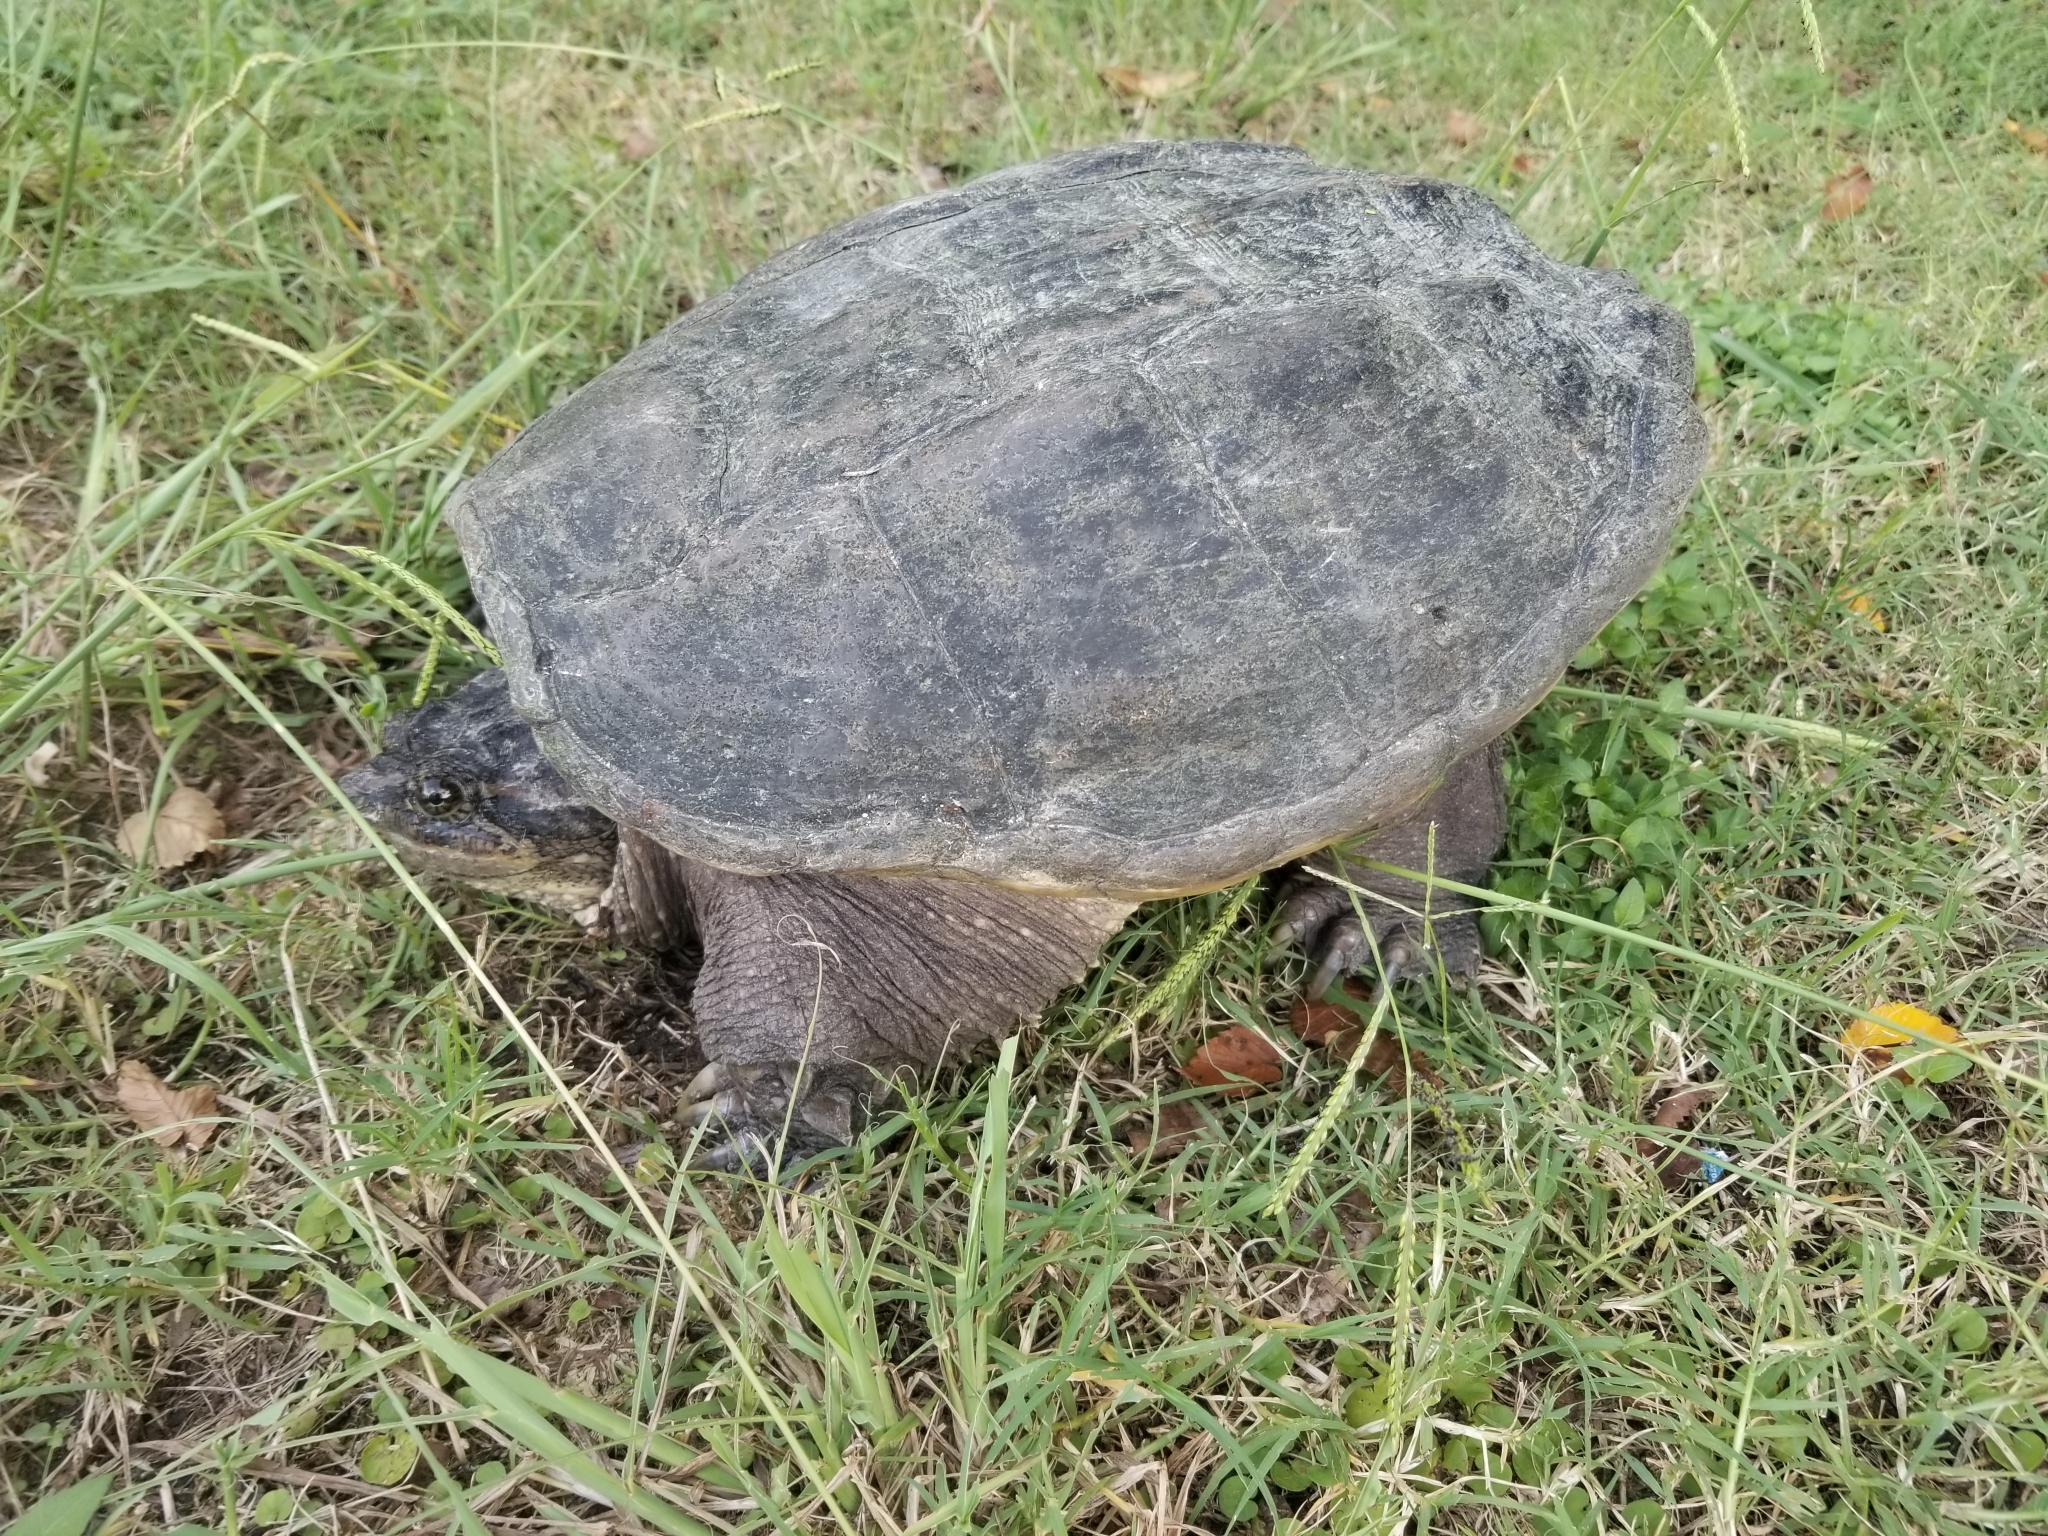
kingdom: Animalia
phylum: Chordata
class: Testudines
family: Chelydridae
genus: Chelydra
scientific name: Chelydra serpentina
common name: Common snapping turtle
